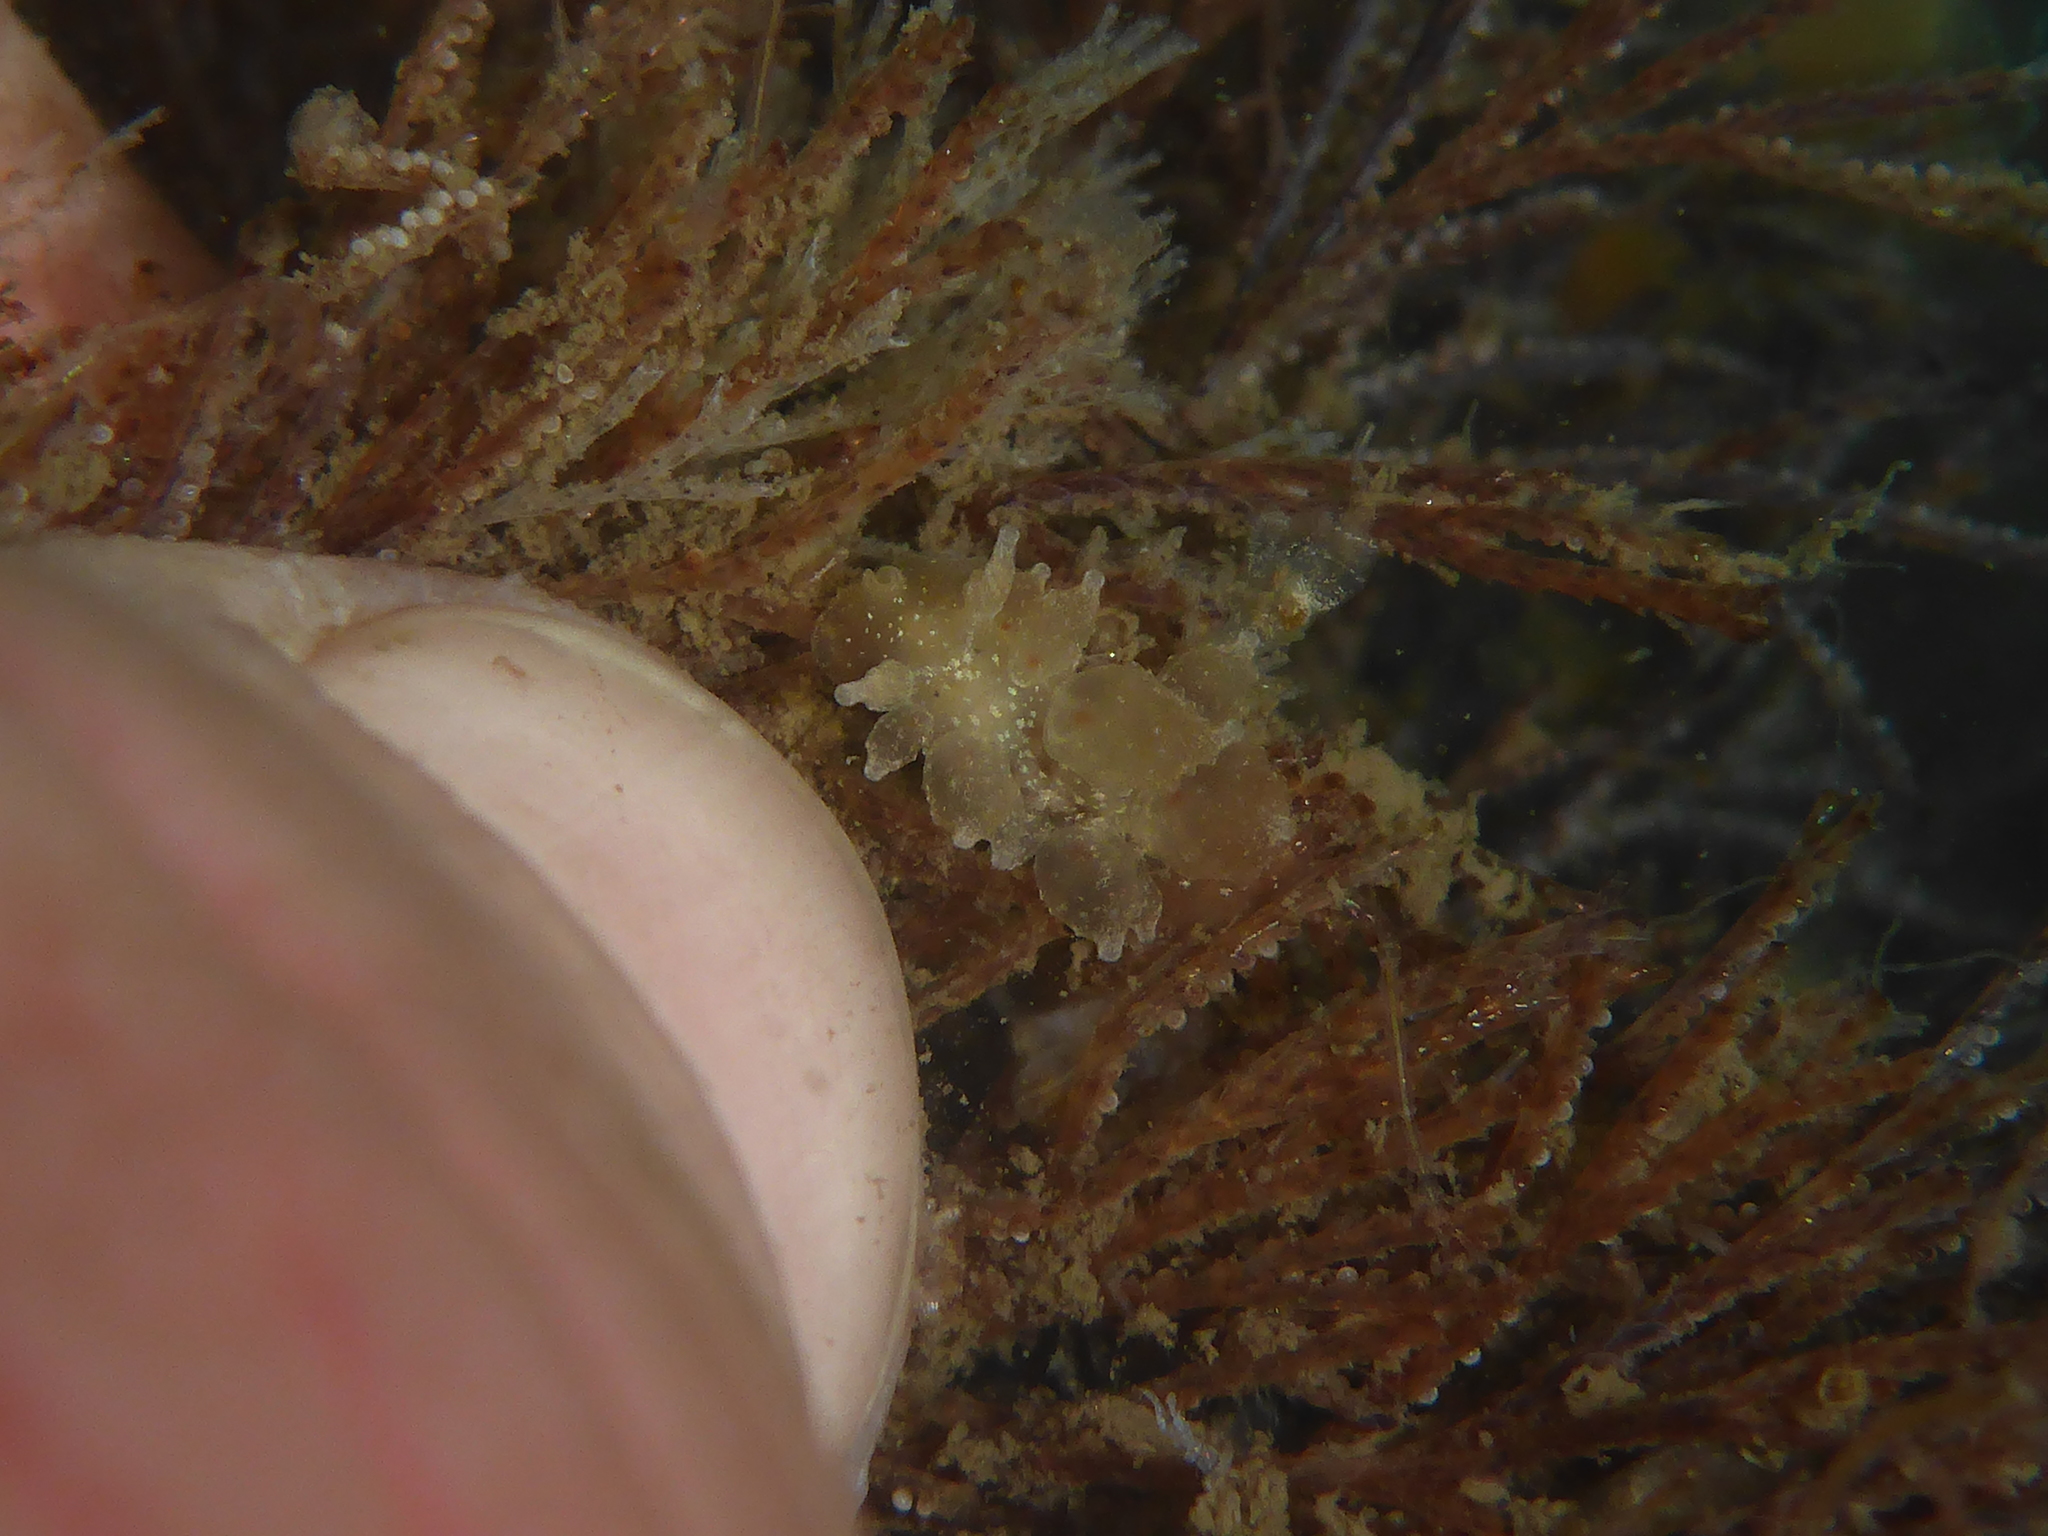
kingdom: Animalia
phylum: Mollusca
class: Gastropoda
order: Nudibranchia
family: Dironidae
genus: Dirona
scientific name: Dirona picta
